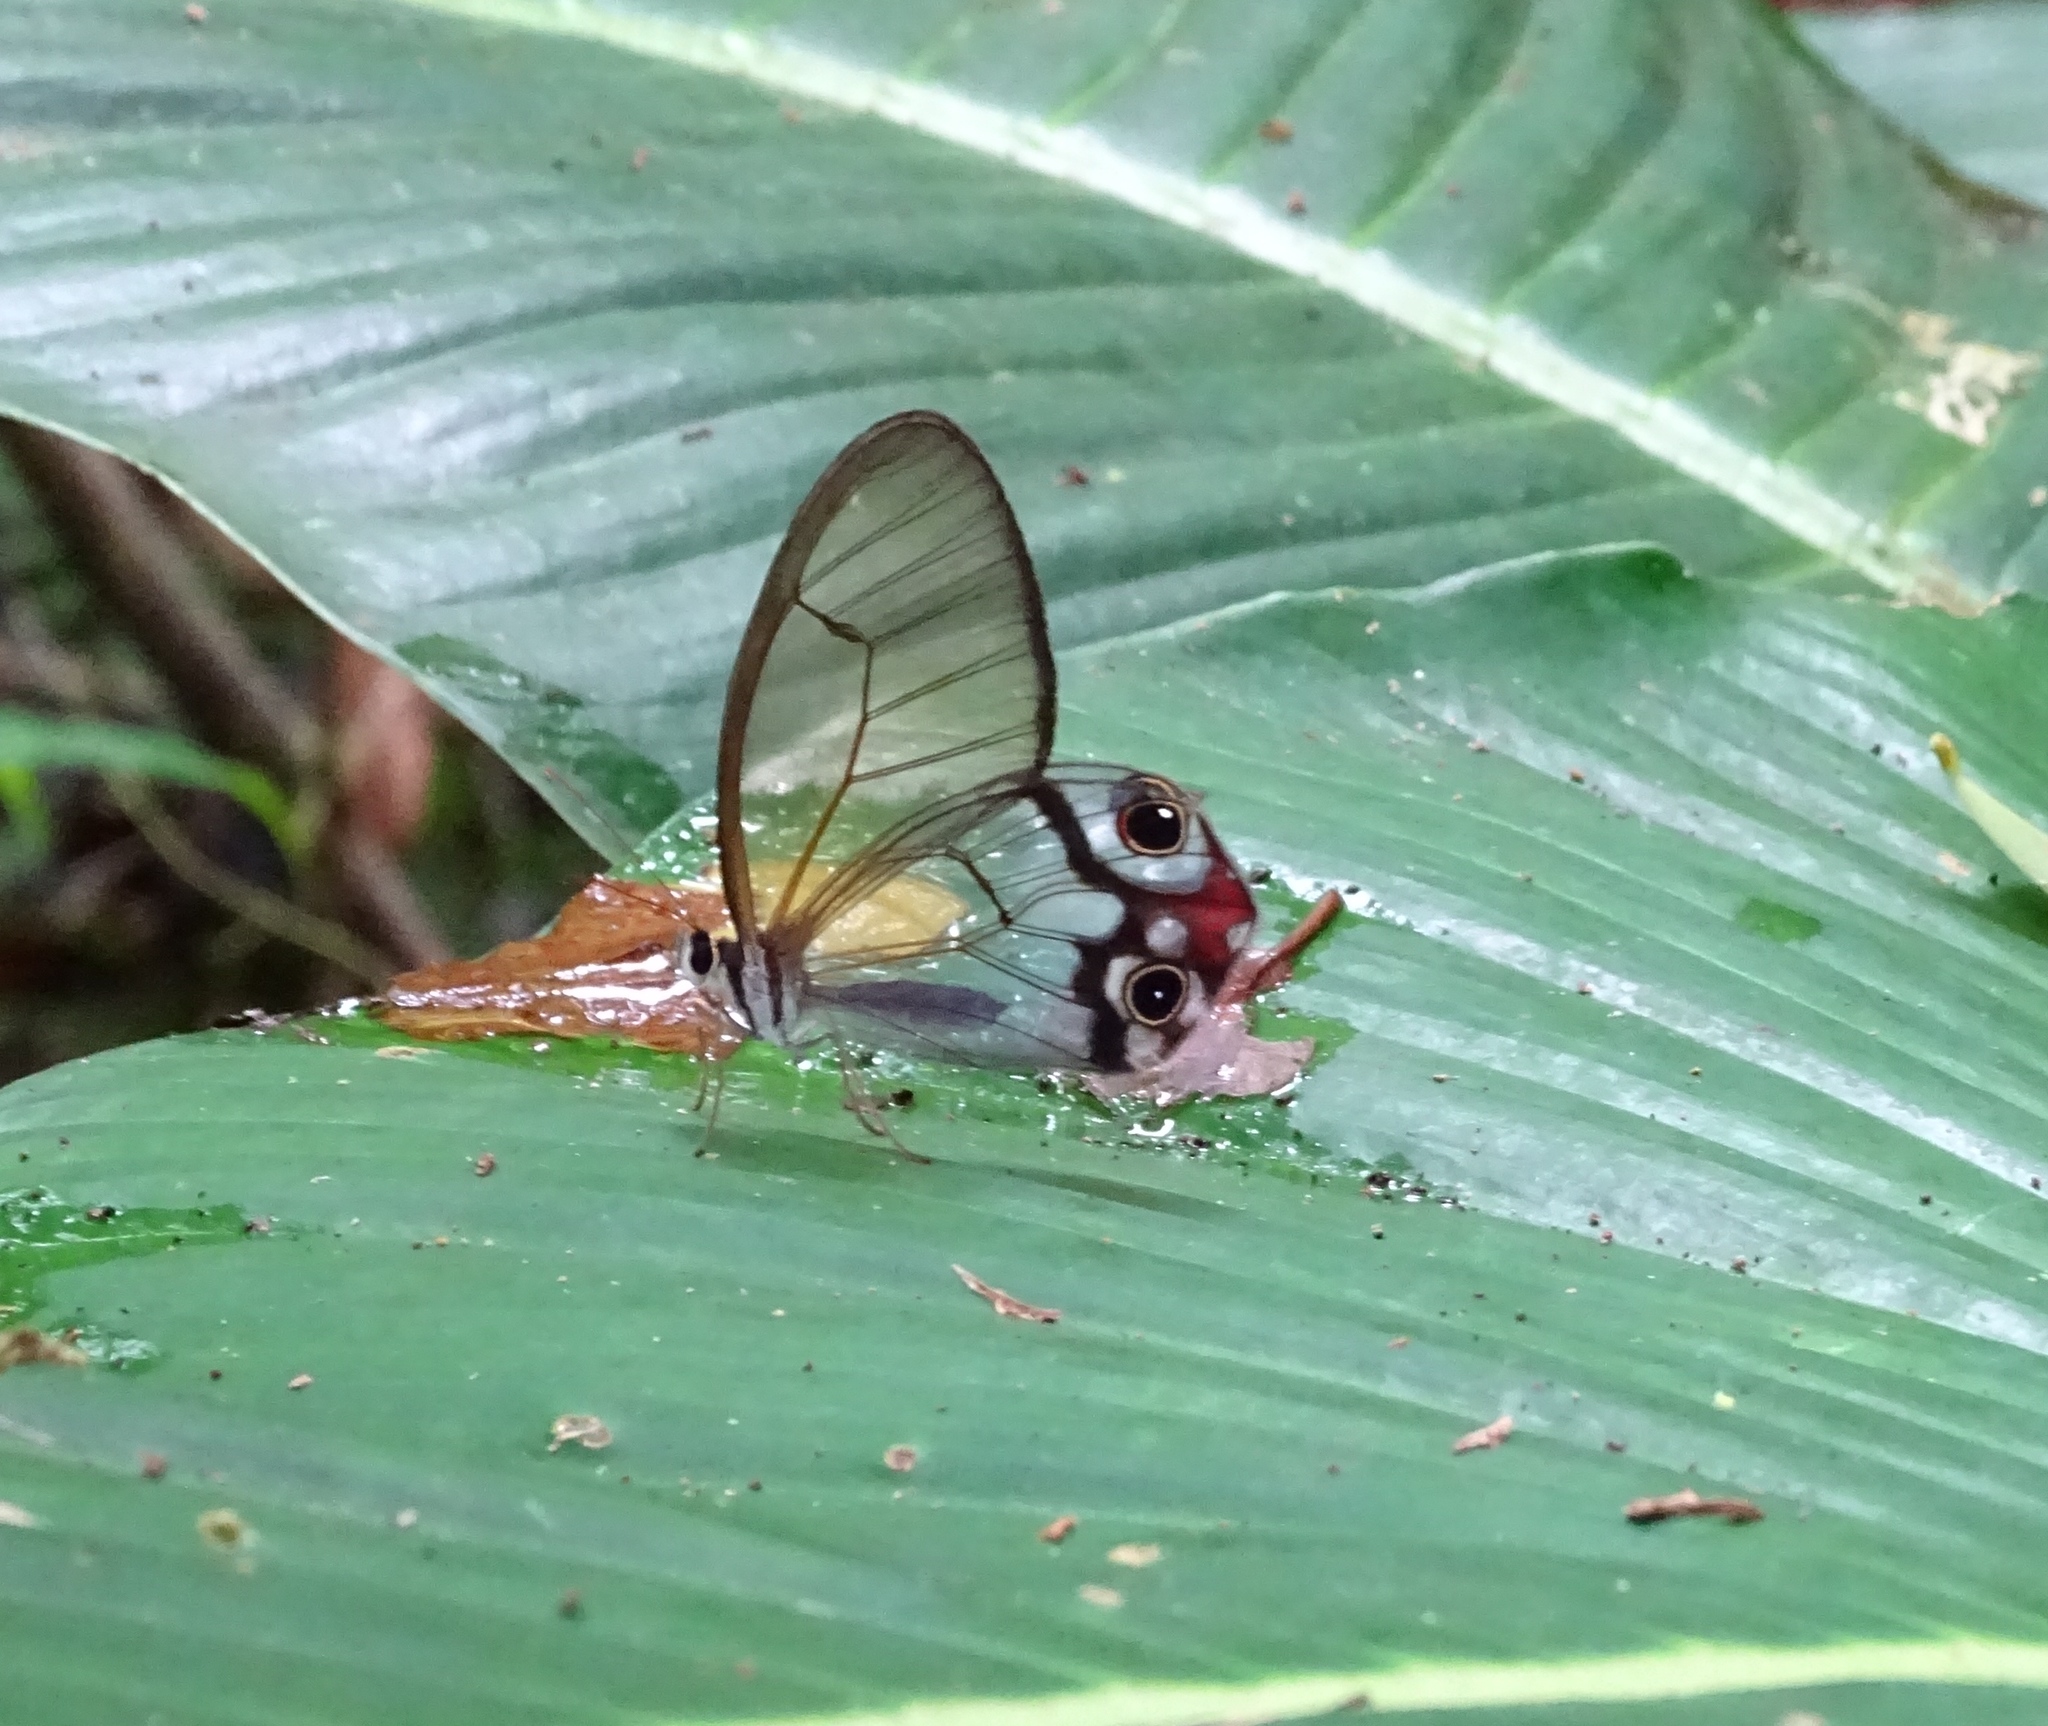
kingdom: Animalia
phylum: Arthropoda
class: Insecta
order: Lepidoptera
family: Nymphalidae
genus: Haetera
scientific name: Haetera macleannania
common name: Reddish clearwing-satyr
